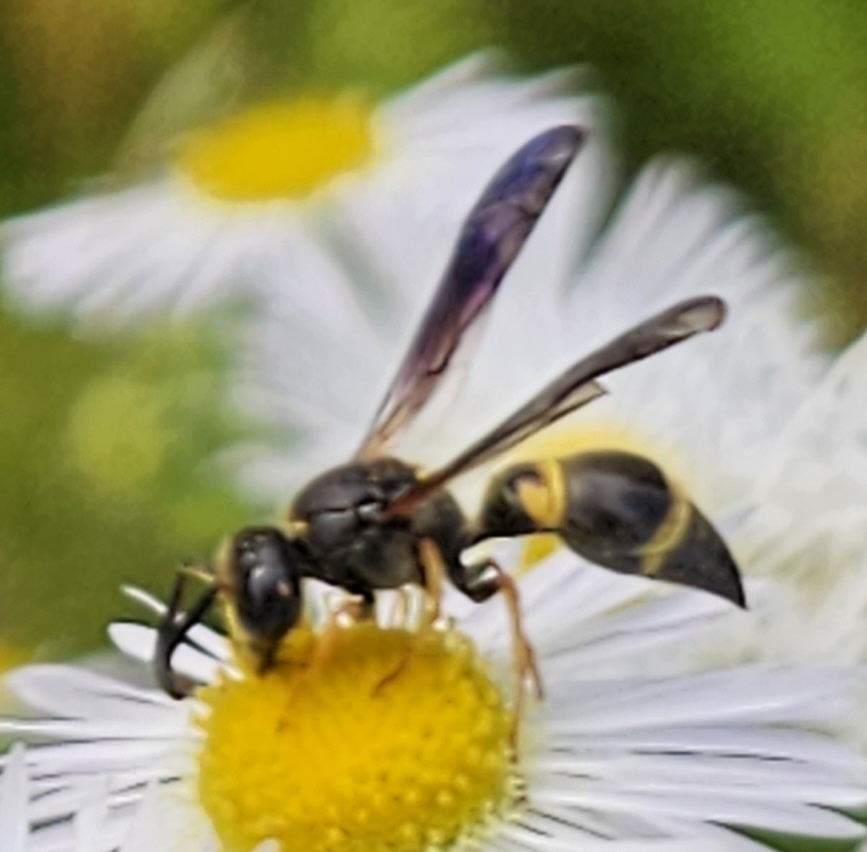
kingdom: Animalia
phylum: Arthropoda
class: Insecta
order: Hymenoptera
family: Vespidae
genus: Ancistrocerus
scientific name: Ancistrocerus unifasciatus
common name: One-banded mason wasp
